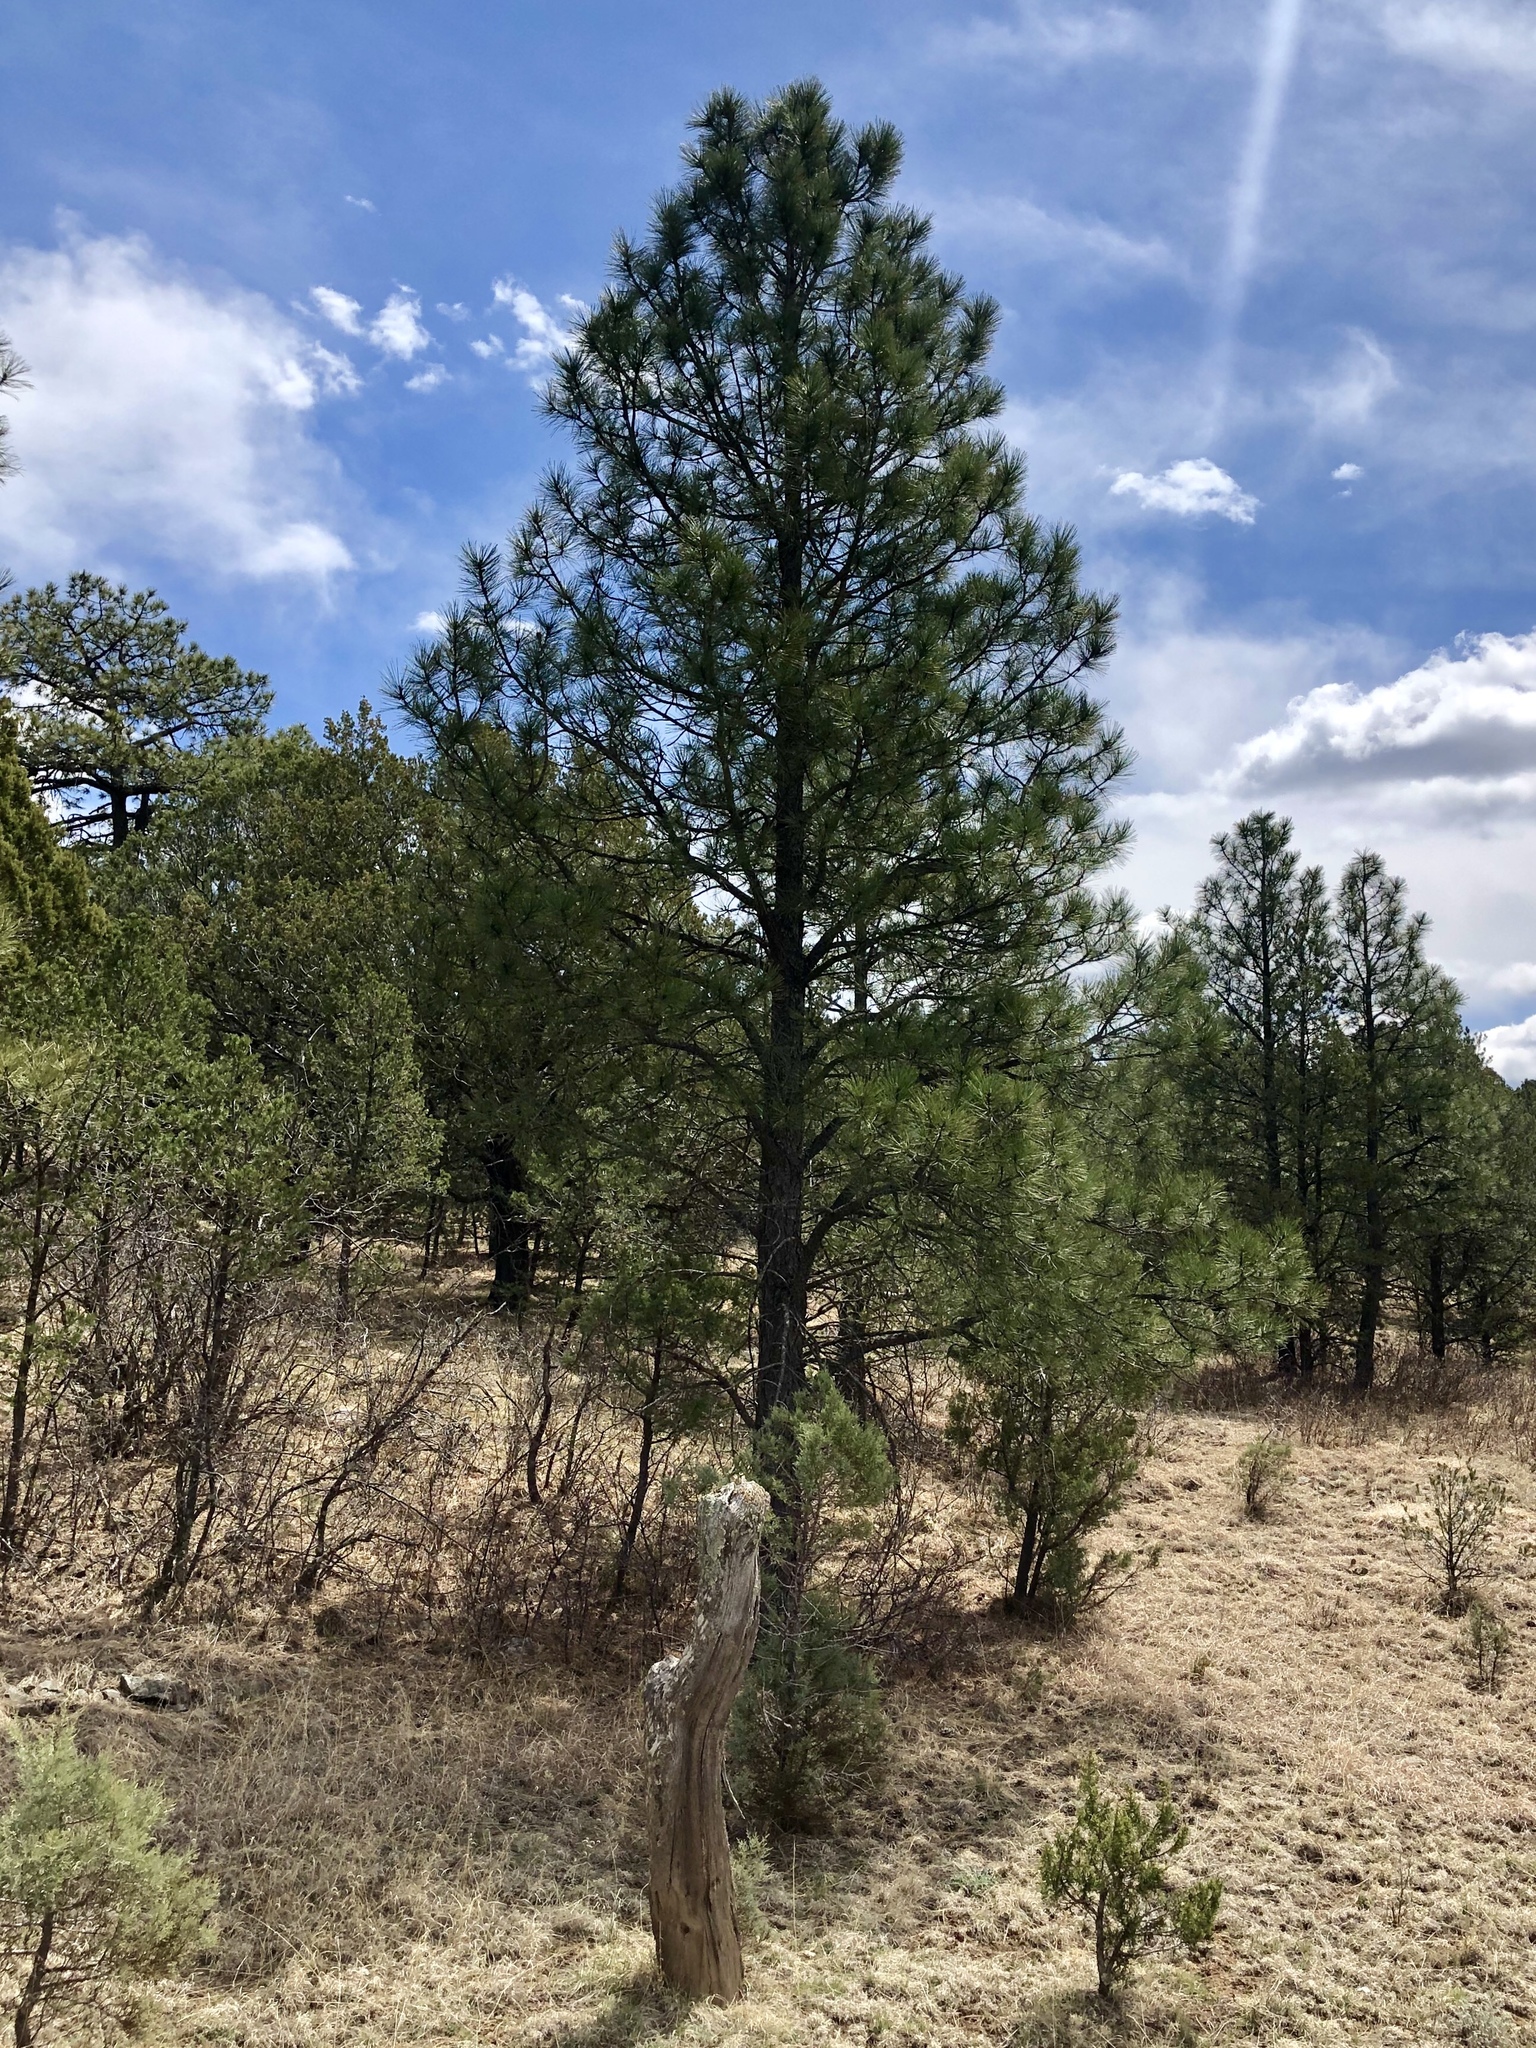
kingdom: Plantae
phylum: Tracheophyta
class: Pinopsida
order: Pinales
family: Pinaceae
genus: Pinus
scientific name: Pinus ponderosa
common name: Western yellow-pine
